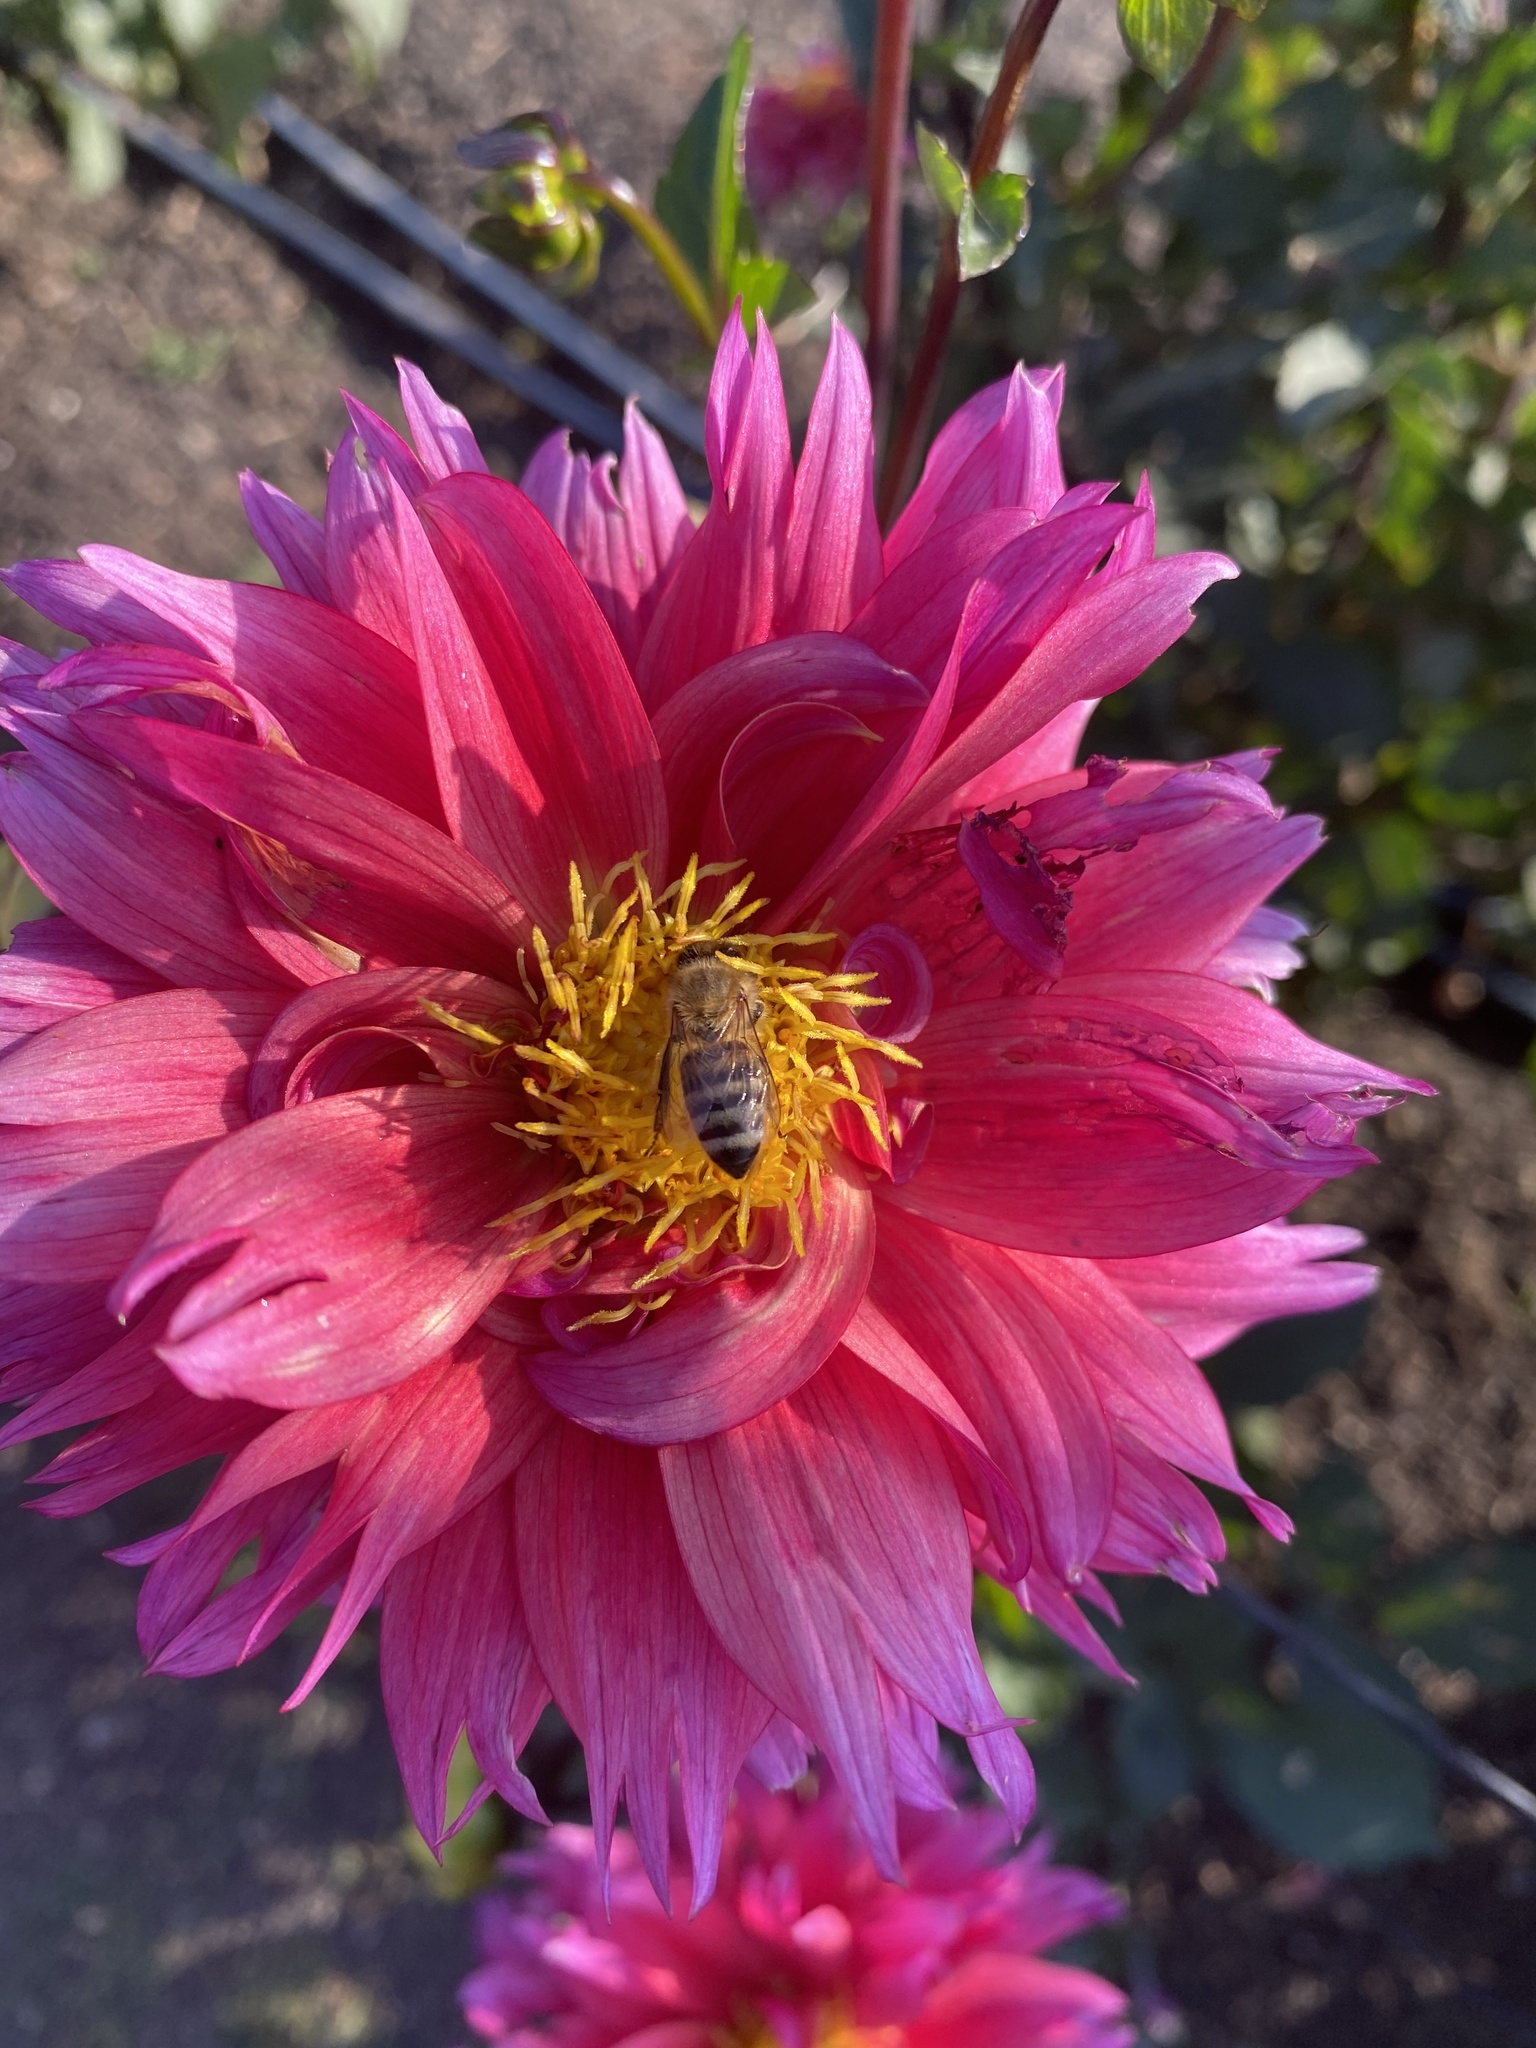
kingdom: Animalia
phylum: Arthropoda
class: Insecta
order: Hymenoptera
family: Apidae
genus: Apis
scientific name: Apis mellifera
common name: Honey bee
